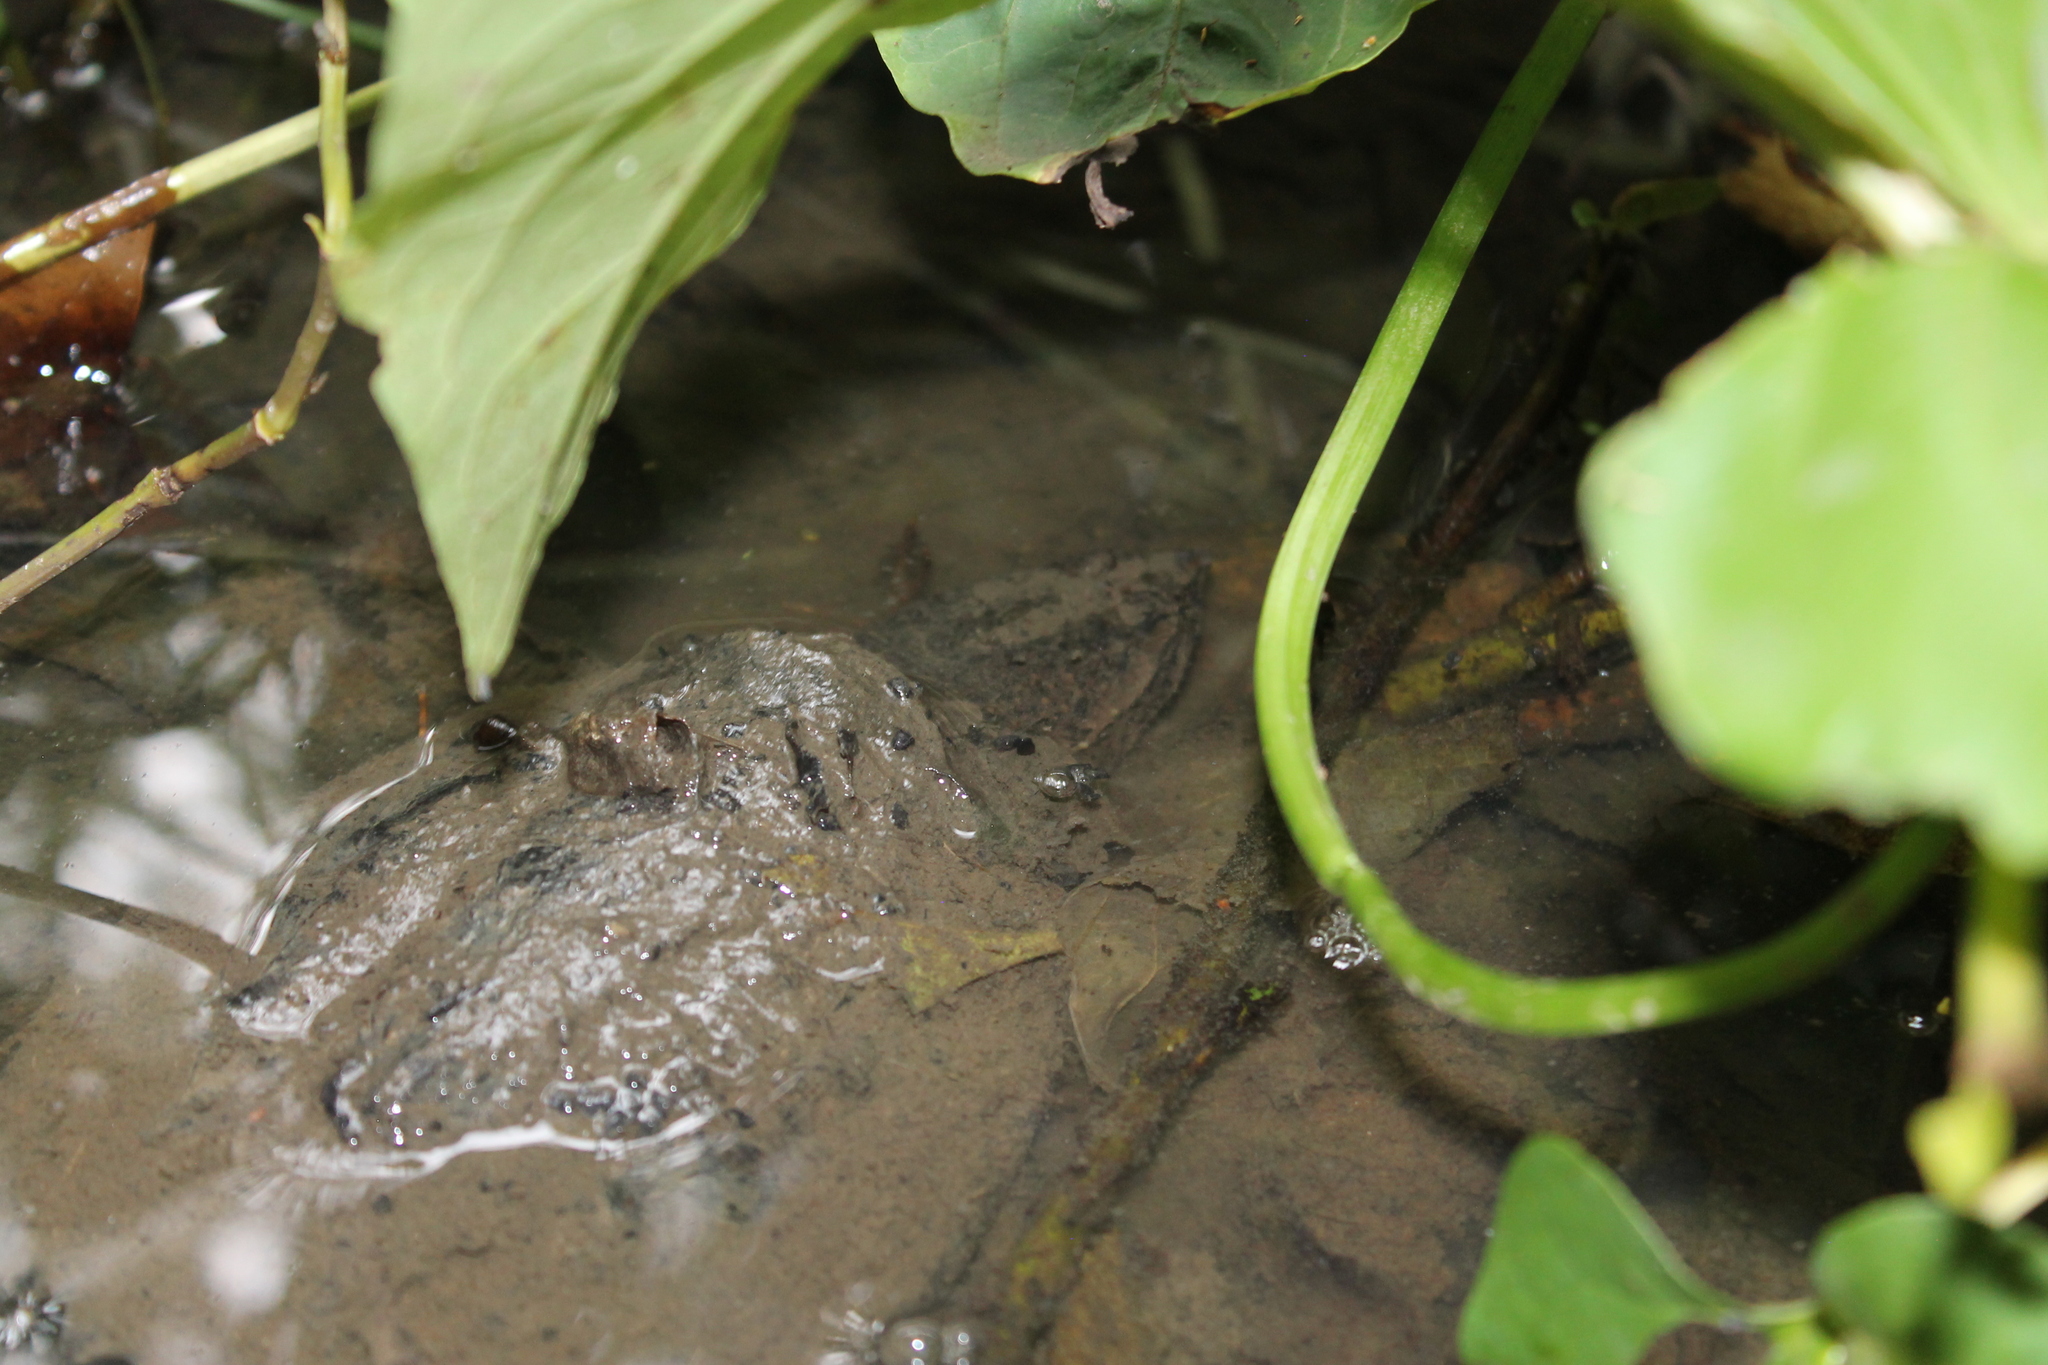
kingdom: Animalia
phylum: Chordata
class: Testudines
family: Chelydridae
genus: Chelydra
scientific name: Chelydra serpentina
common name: Common snapping turtle
